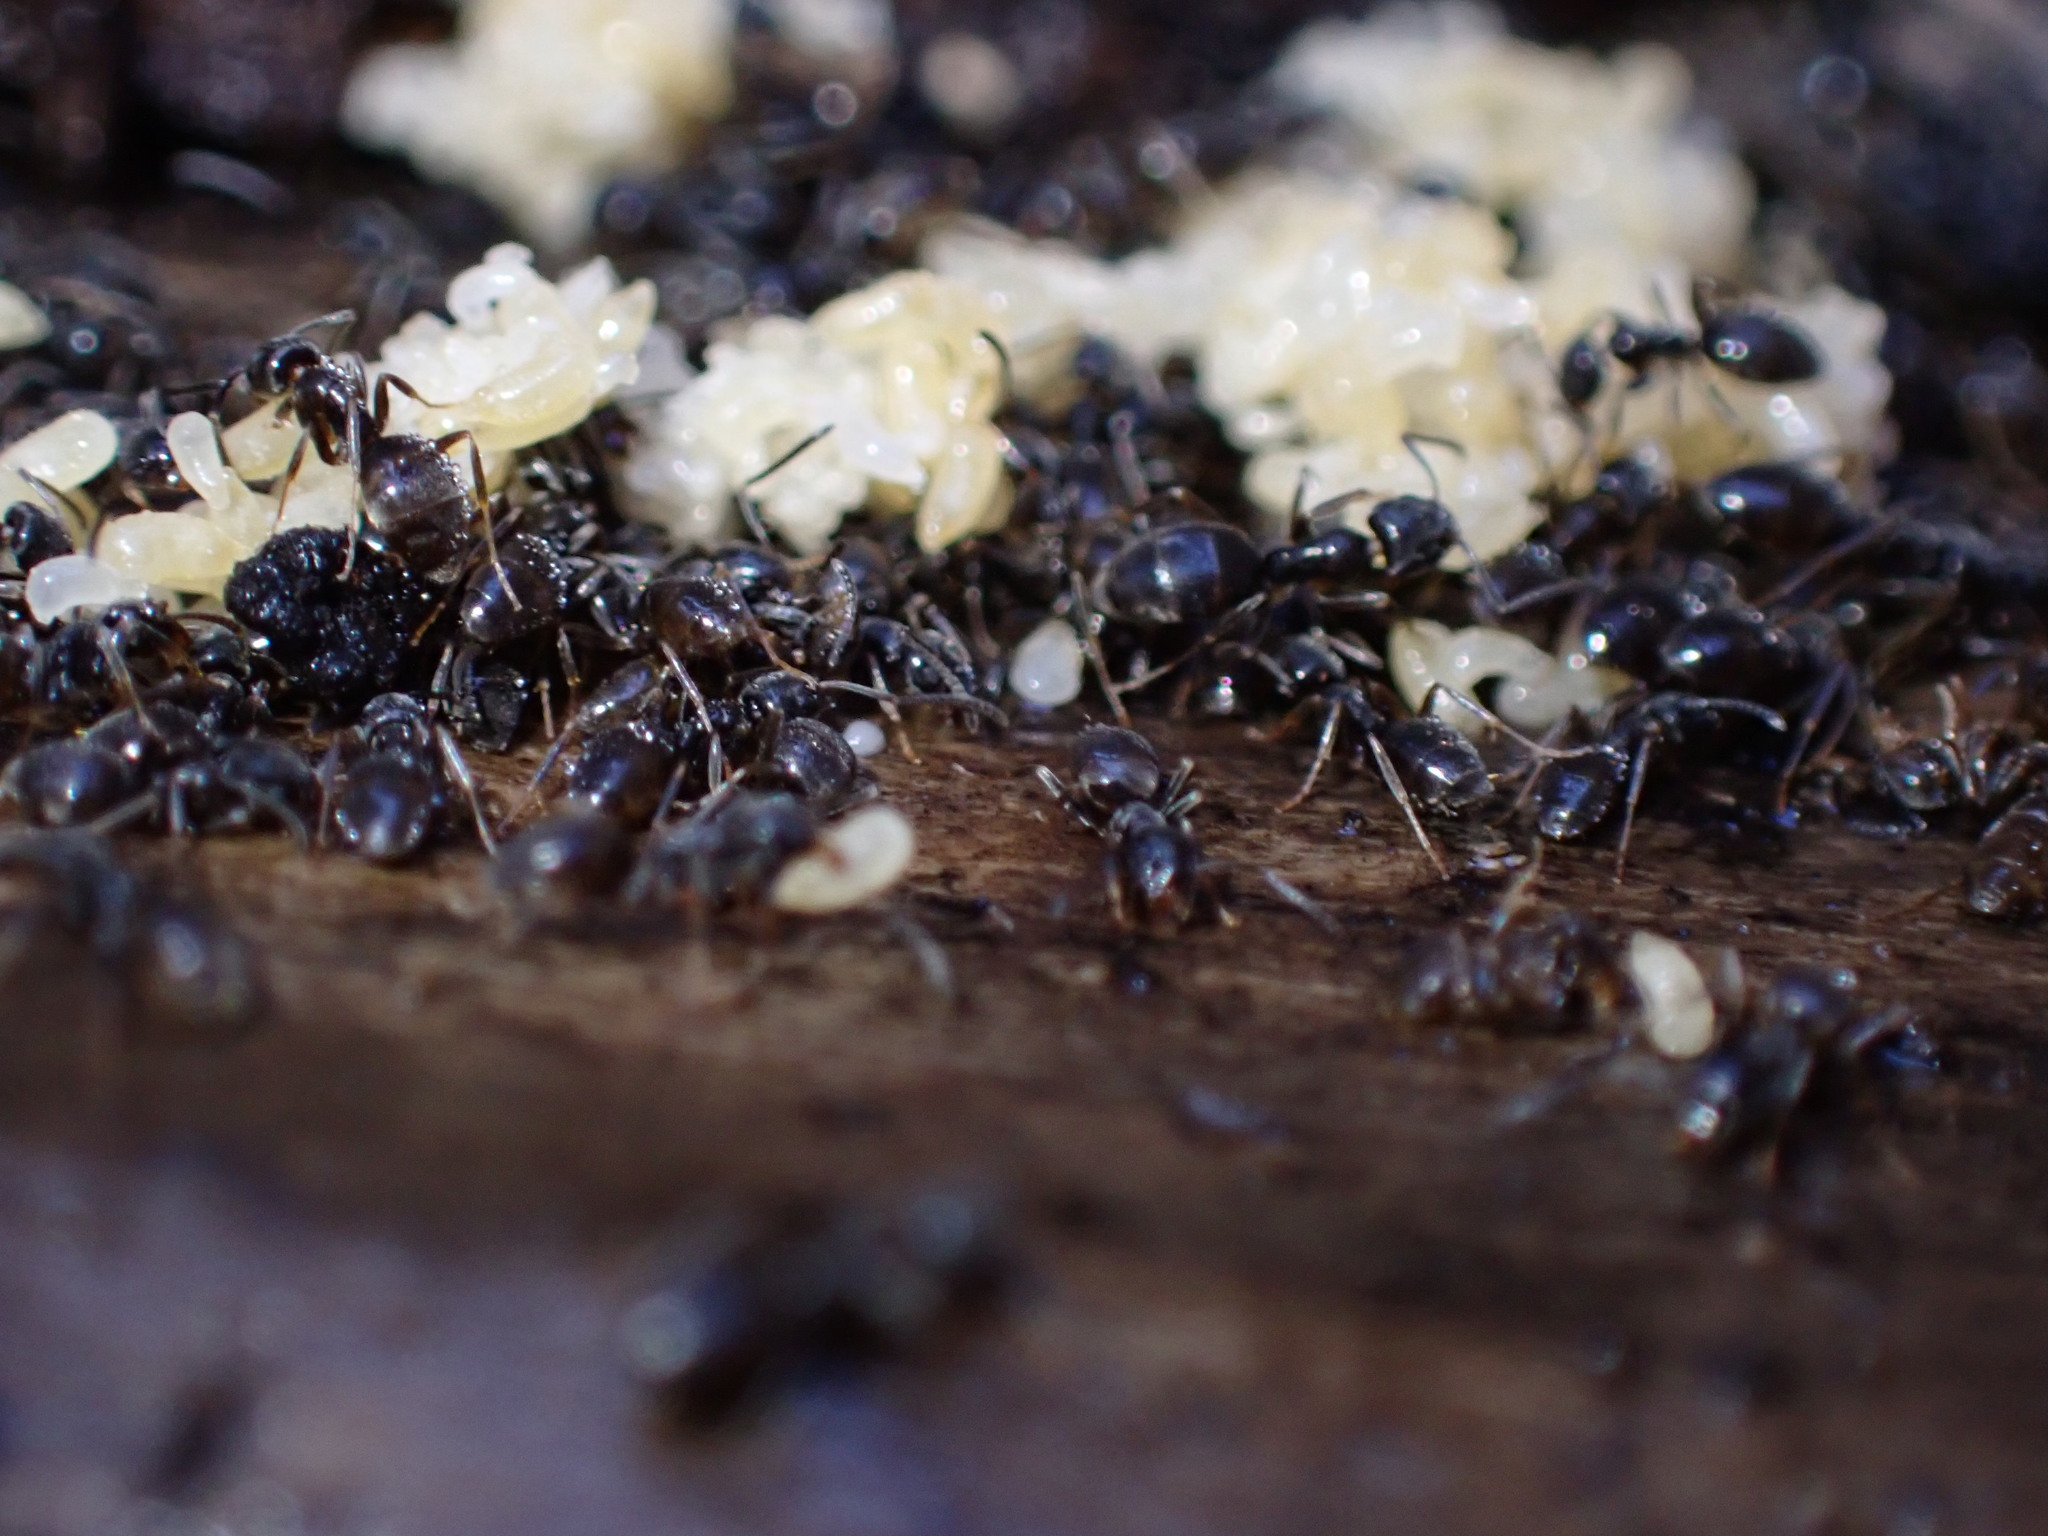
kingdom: Animalia
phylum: Arthropoda
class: Insecta
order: Hymenoptera
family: Formicidae
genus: Tapinoma
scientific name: Tapinoma sessile
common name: Odorous house ant
